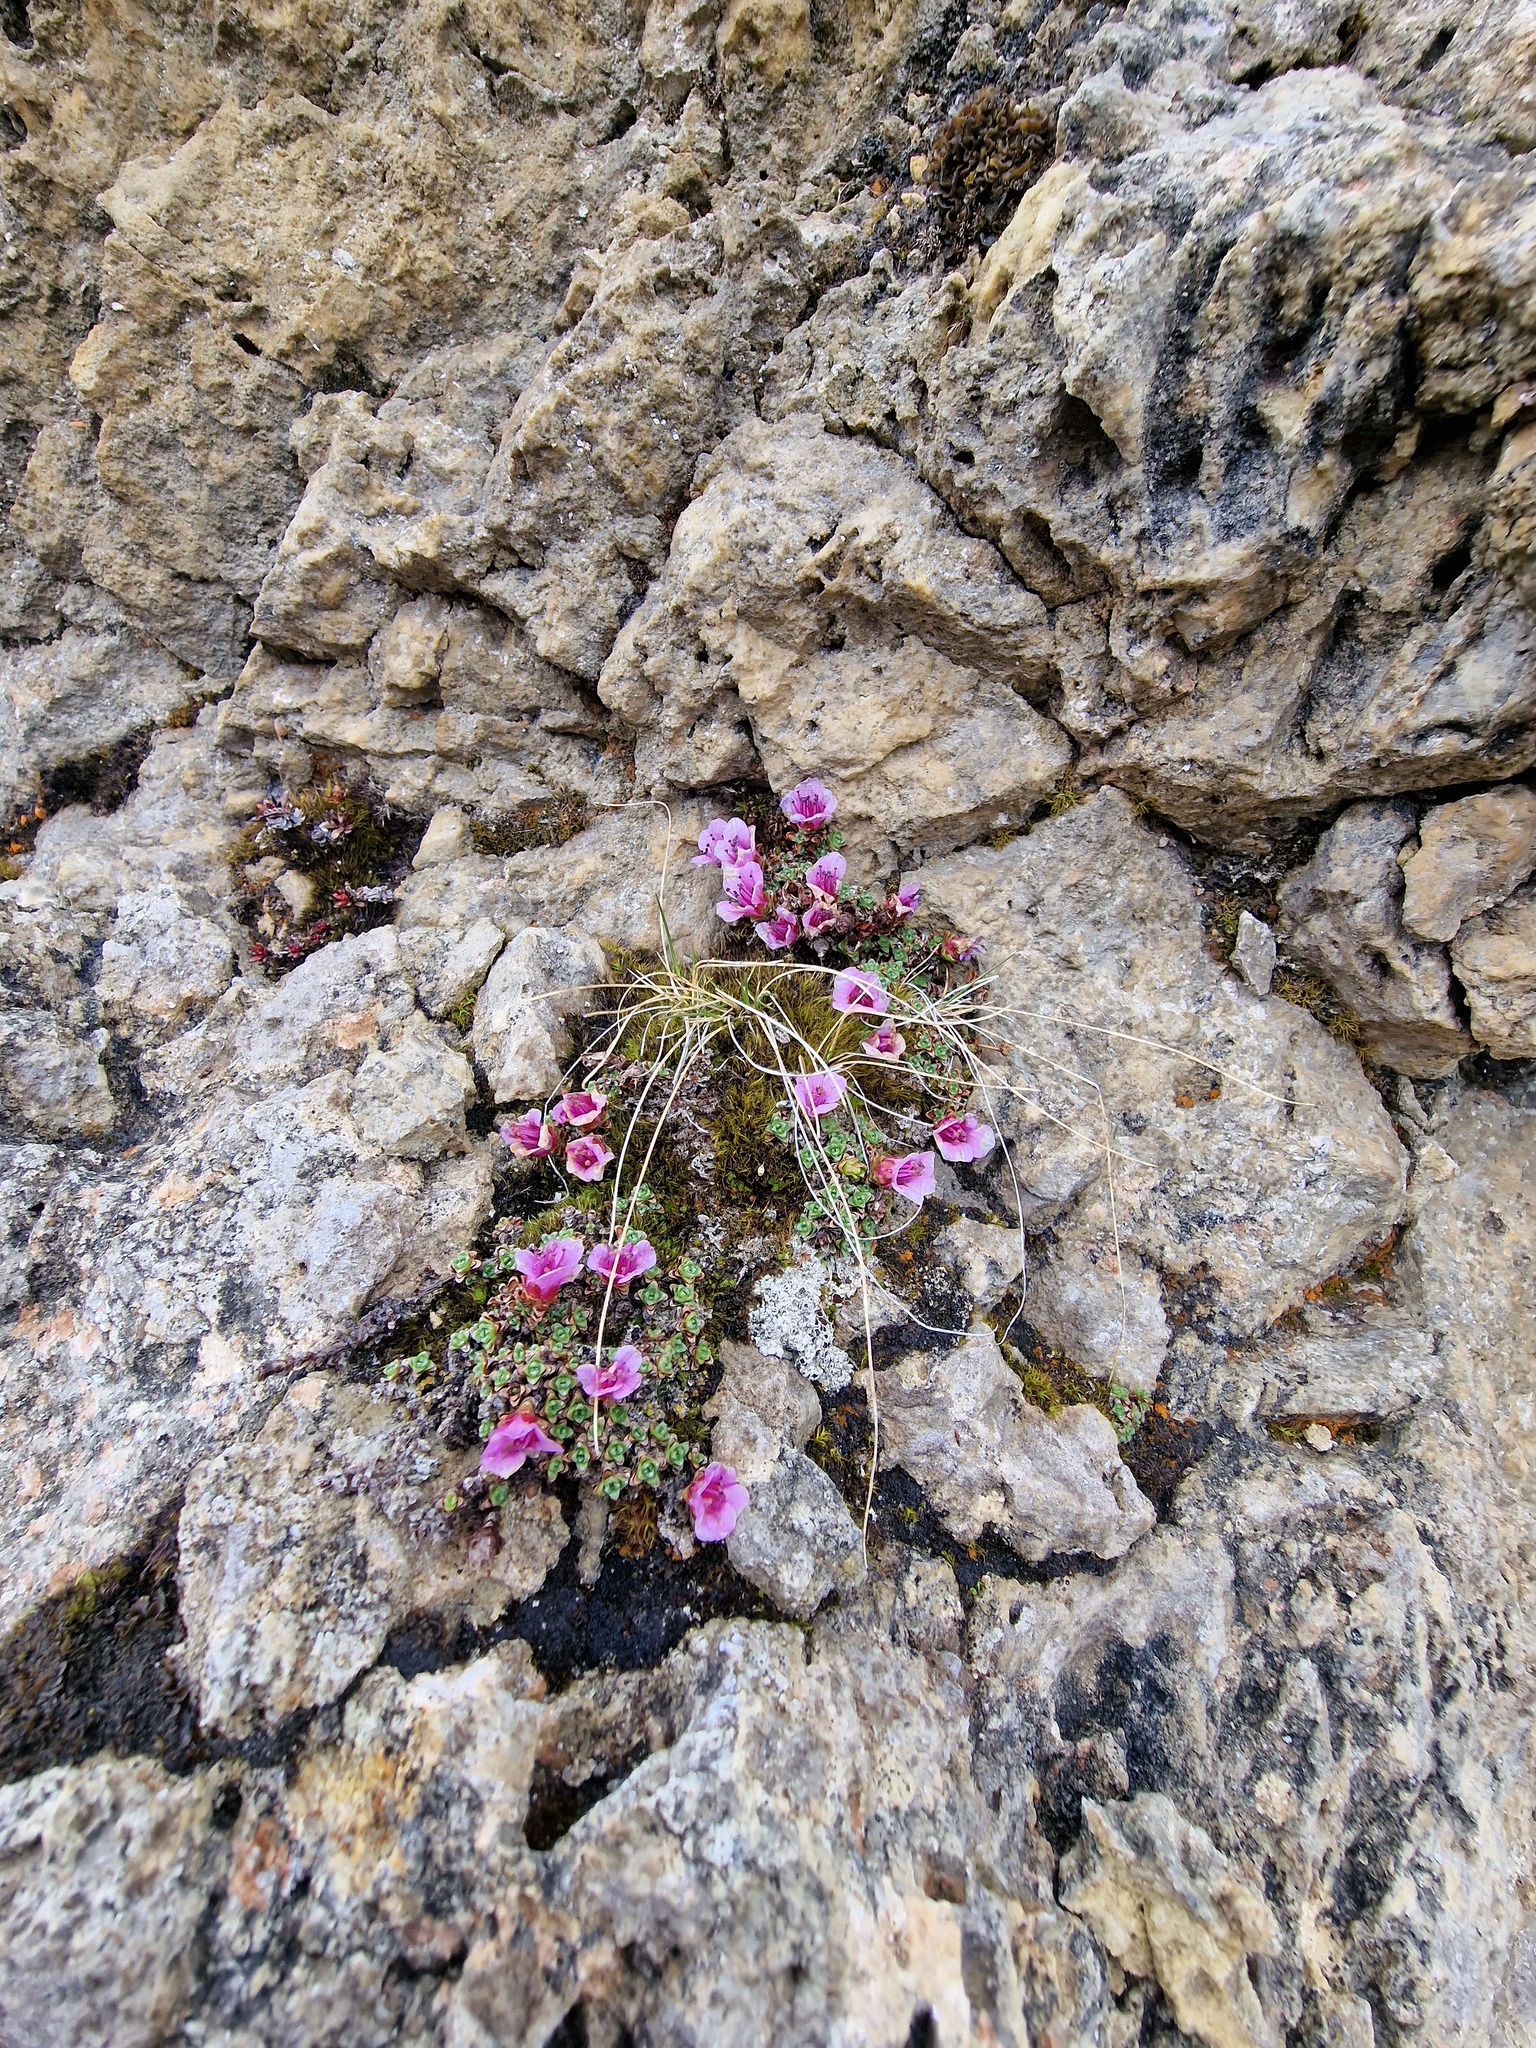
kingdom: Plantae
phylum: Tracheophyta
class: Magnoliopsida
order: Saxifragales
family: Saxifragaceae
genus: Saxifraga
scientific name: Saxifraga oppositifolia
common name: Purple saxifrage
